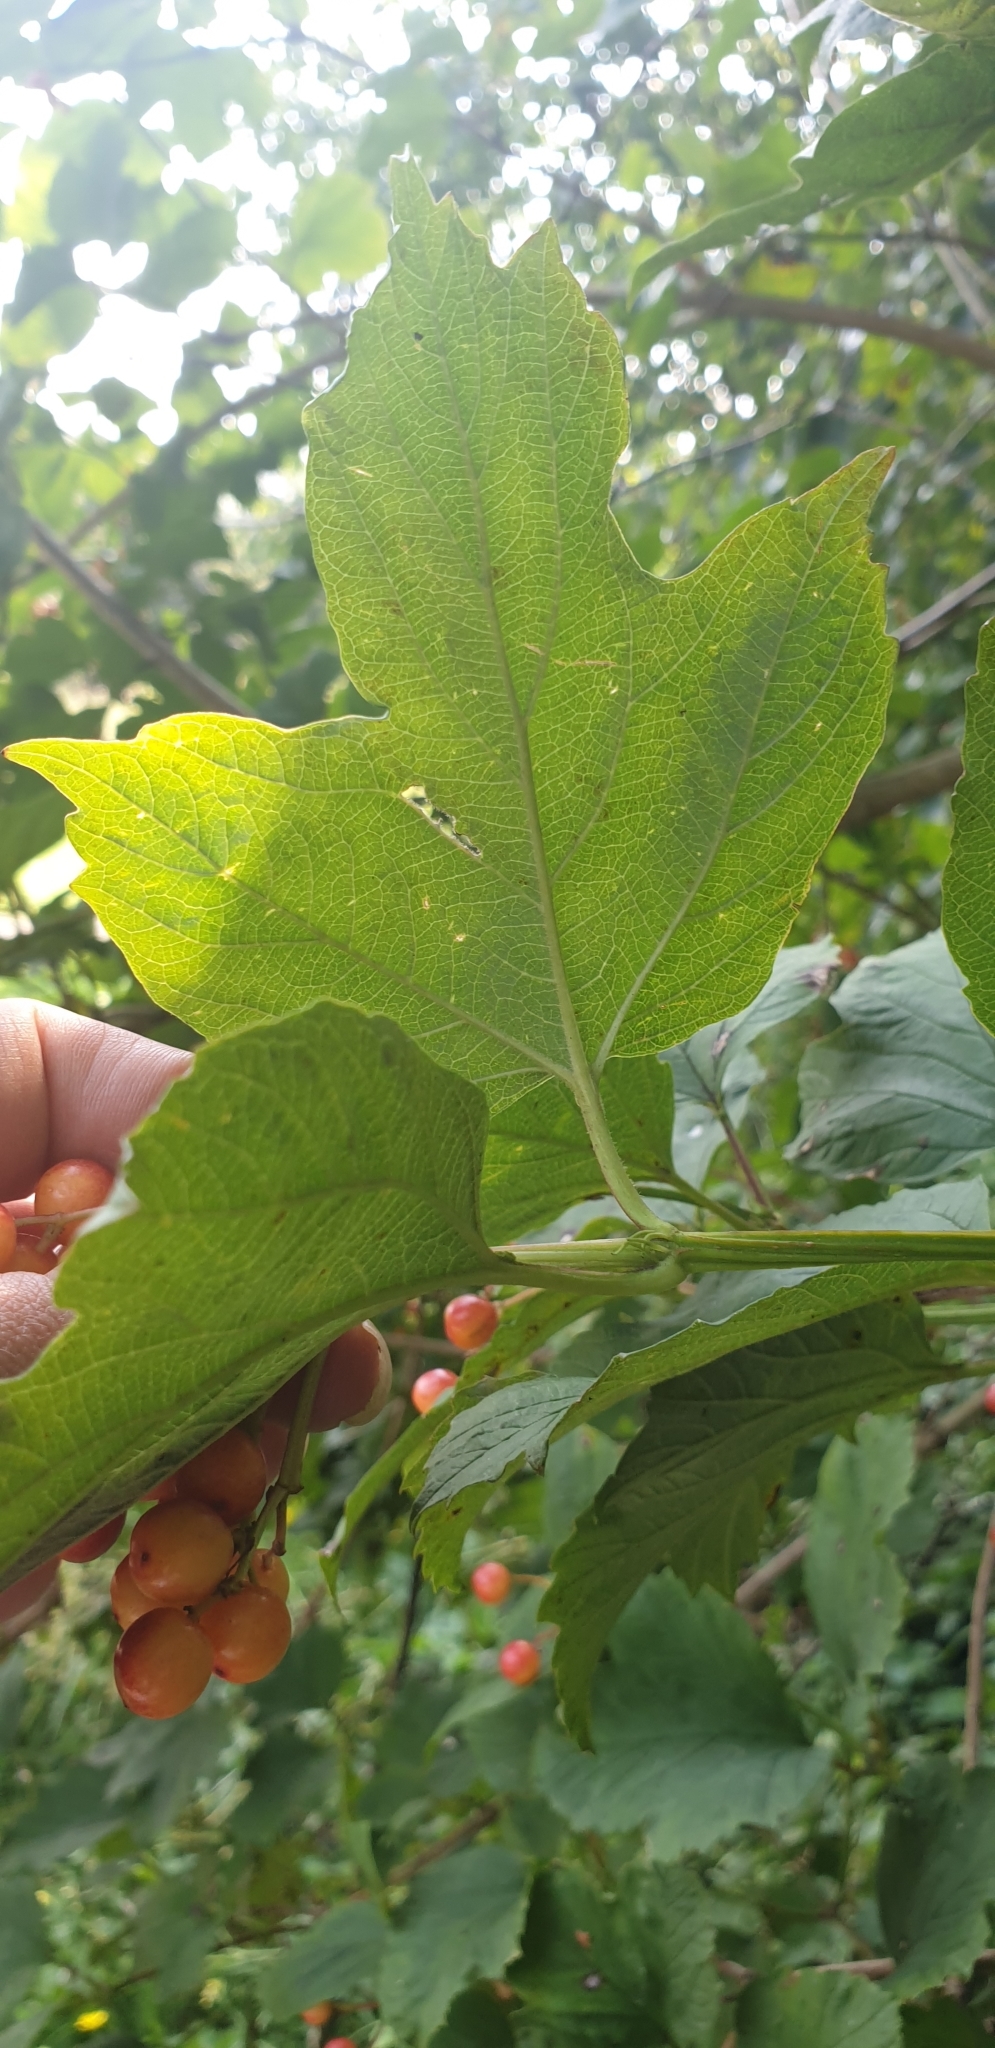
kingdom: Plantae
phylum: Tracheophyta
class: Magnoliopsida
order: Dipsacales
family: Viburnaceae
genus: Viburnum
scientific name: Viburnum opulus
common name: Guelder-rose
